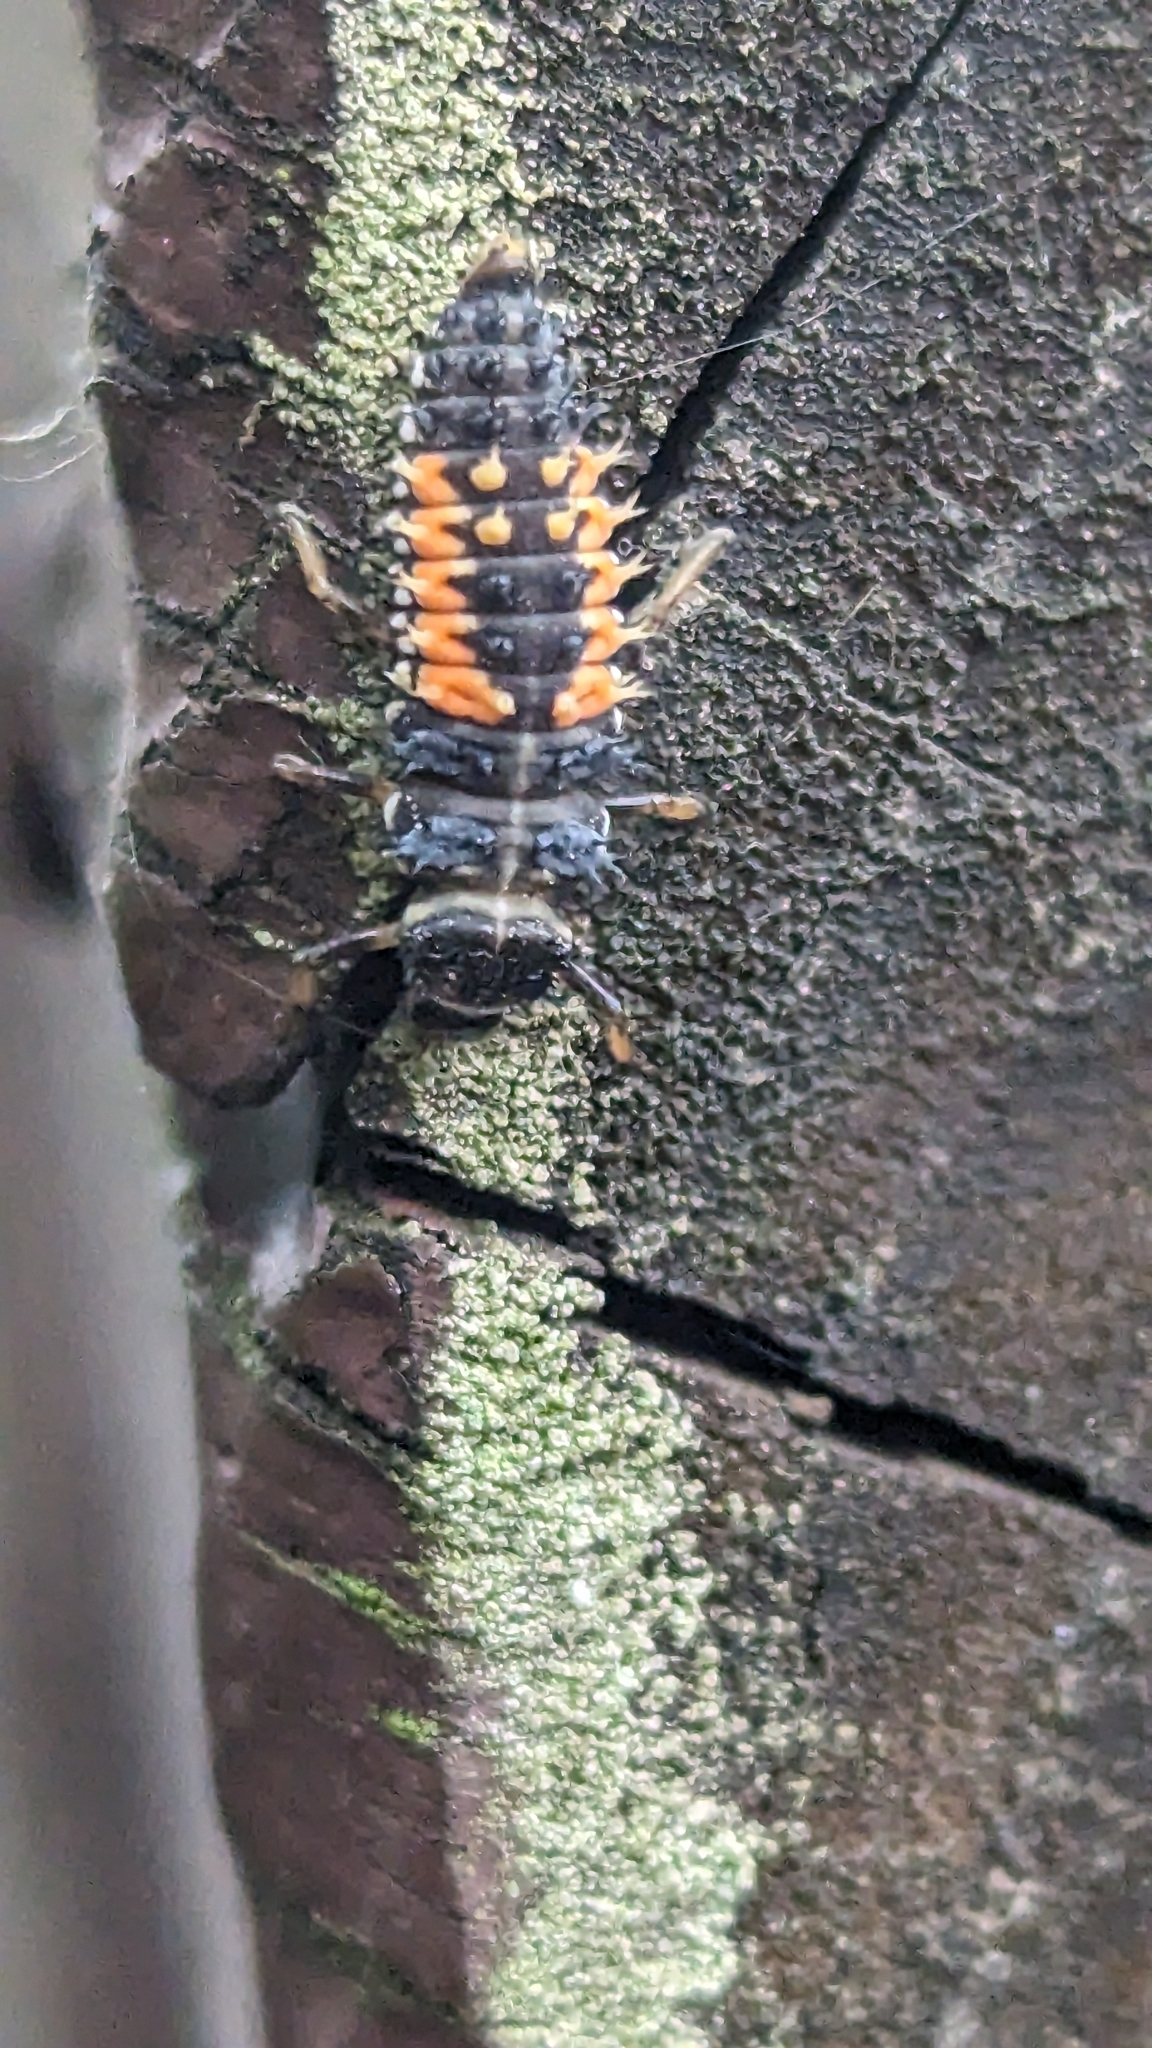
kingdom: Animalia
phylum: Arthropoda
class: Insecta
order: Coleoptera
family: Coccinellidae
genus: Harmonia
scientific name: Harmonia axyridis
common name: Harlequin ladybird
